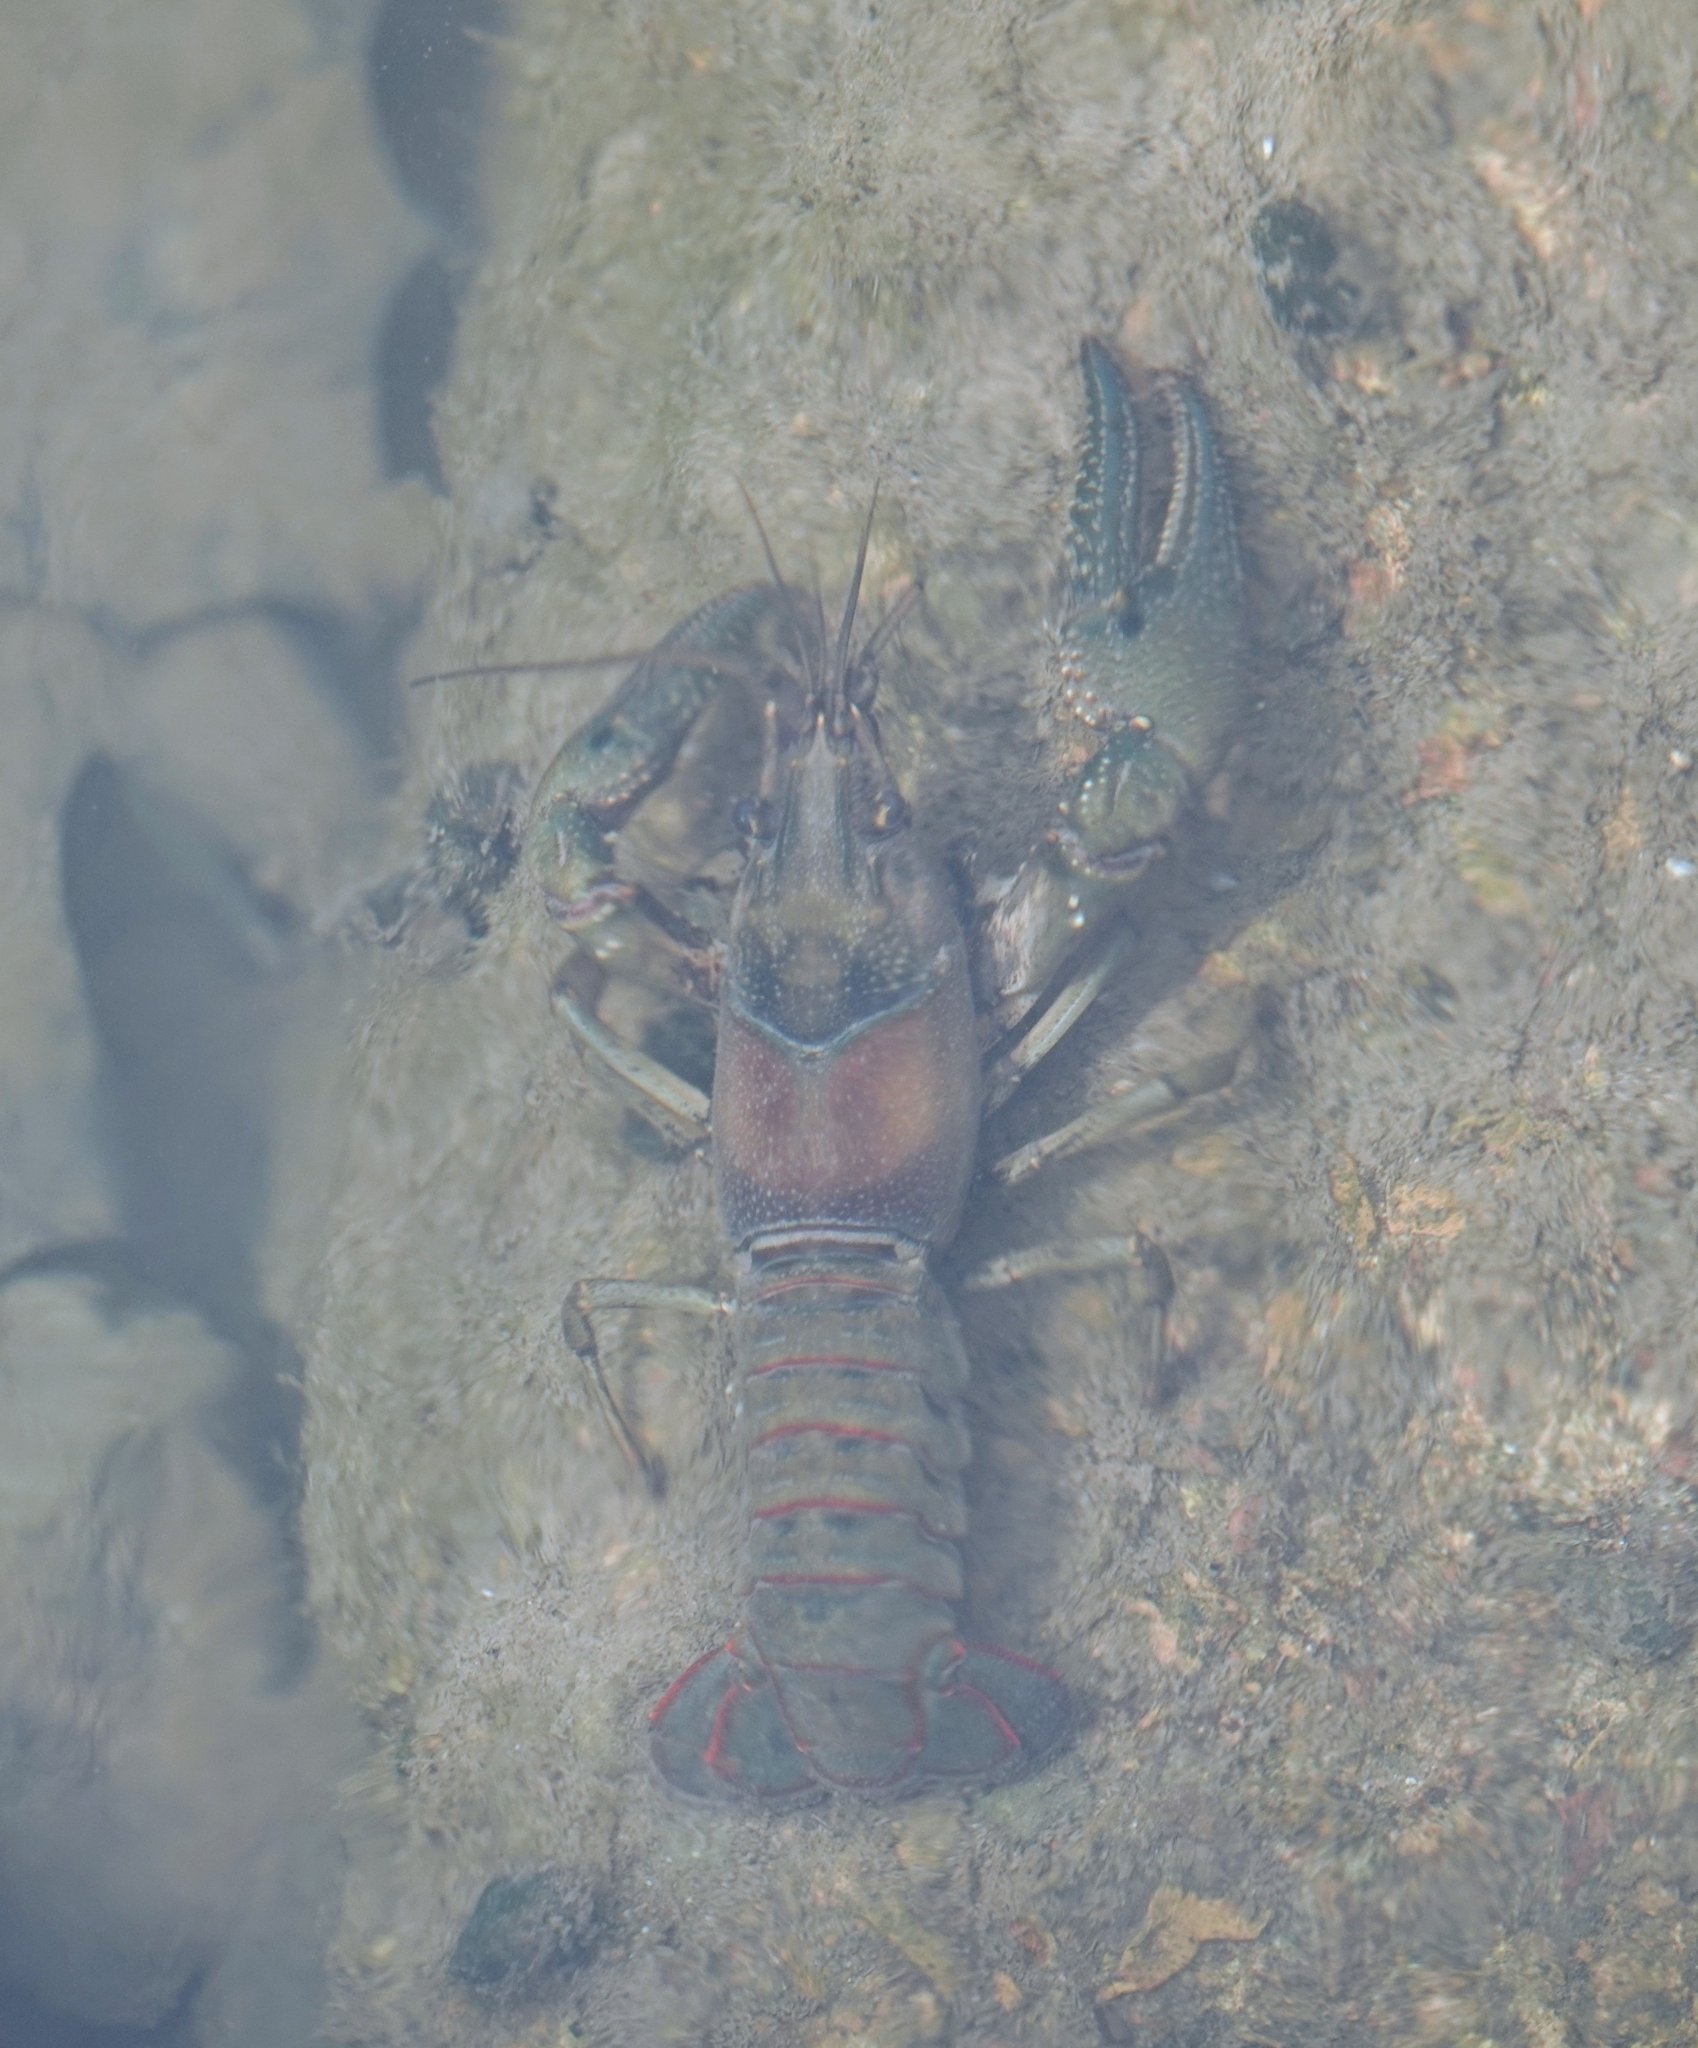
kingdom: Animalia
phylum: Arthropoda
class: Malacostraca
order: Decapoda
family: Cambaridae
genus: Faxonius
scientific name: Faxonius punctimanus
